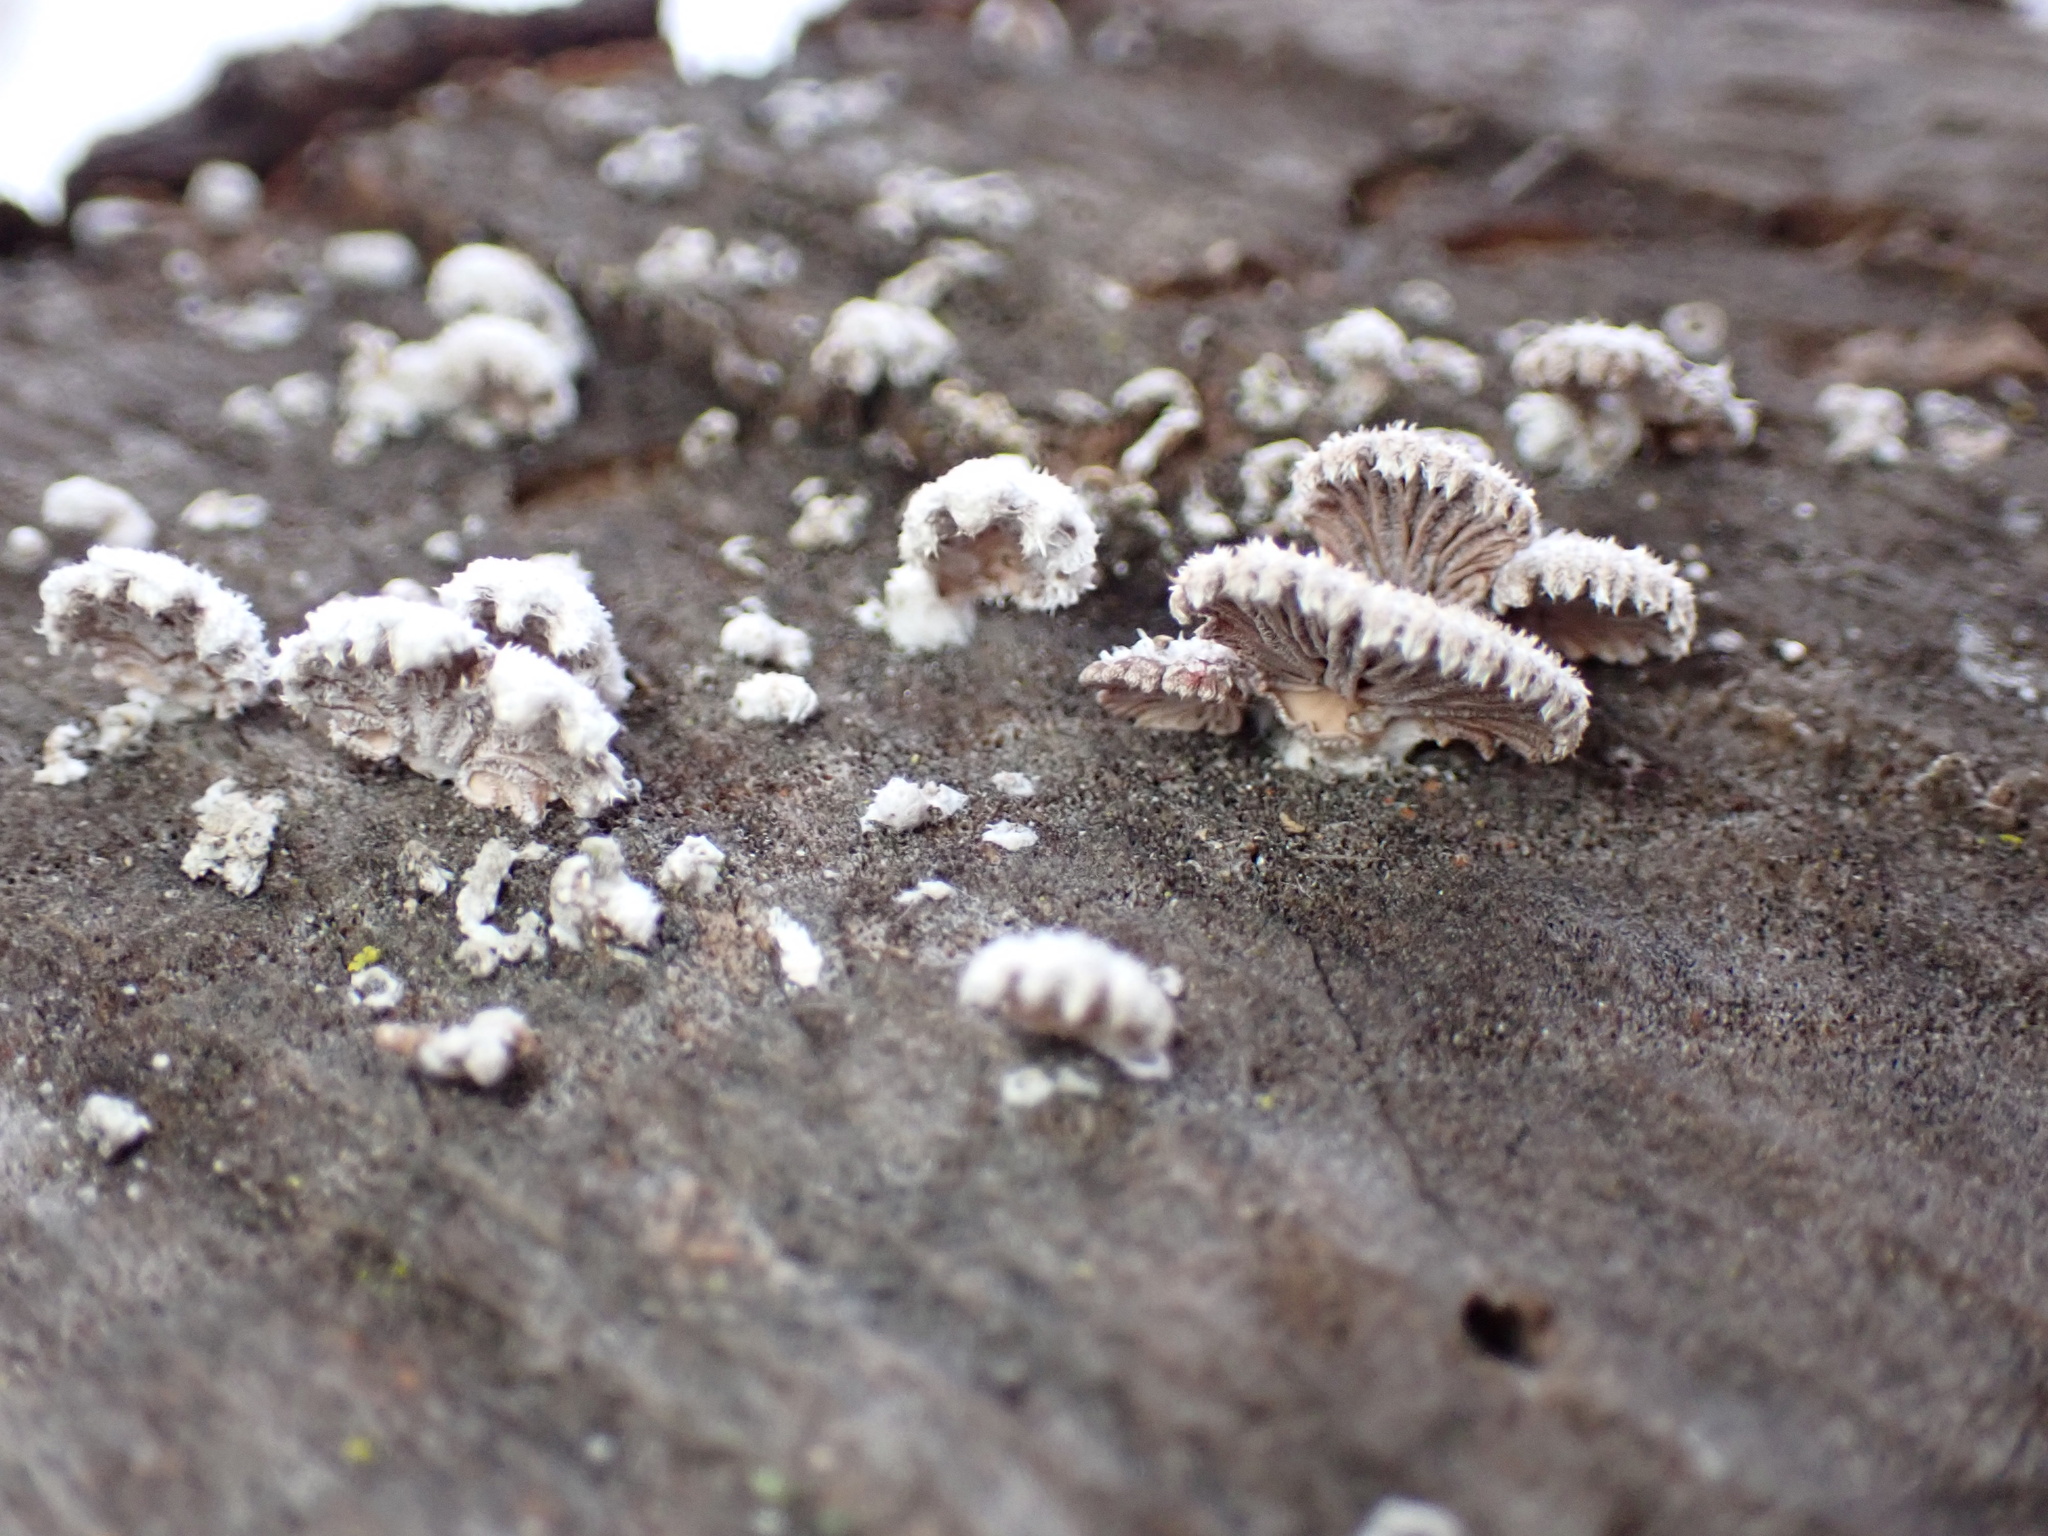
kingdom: Fungi
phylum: Basidiomycota
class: Agaricomycetes
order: Agaricales
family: Schizophyllaceae
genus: Schizophyllum
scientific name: Schizophyllum commune
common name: Common porecrust
